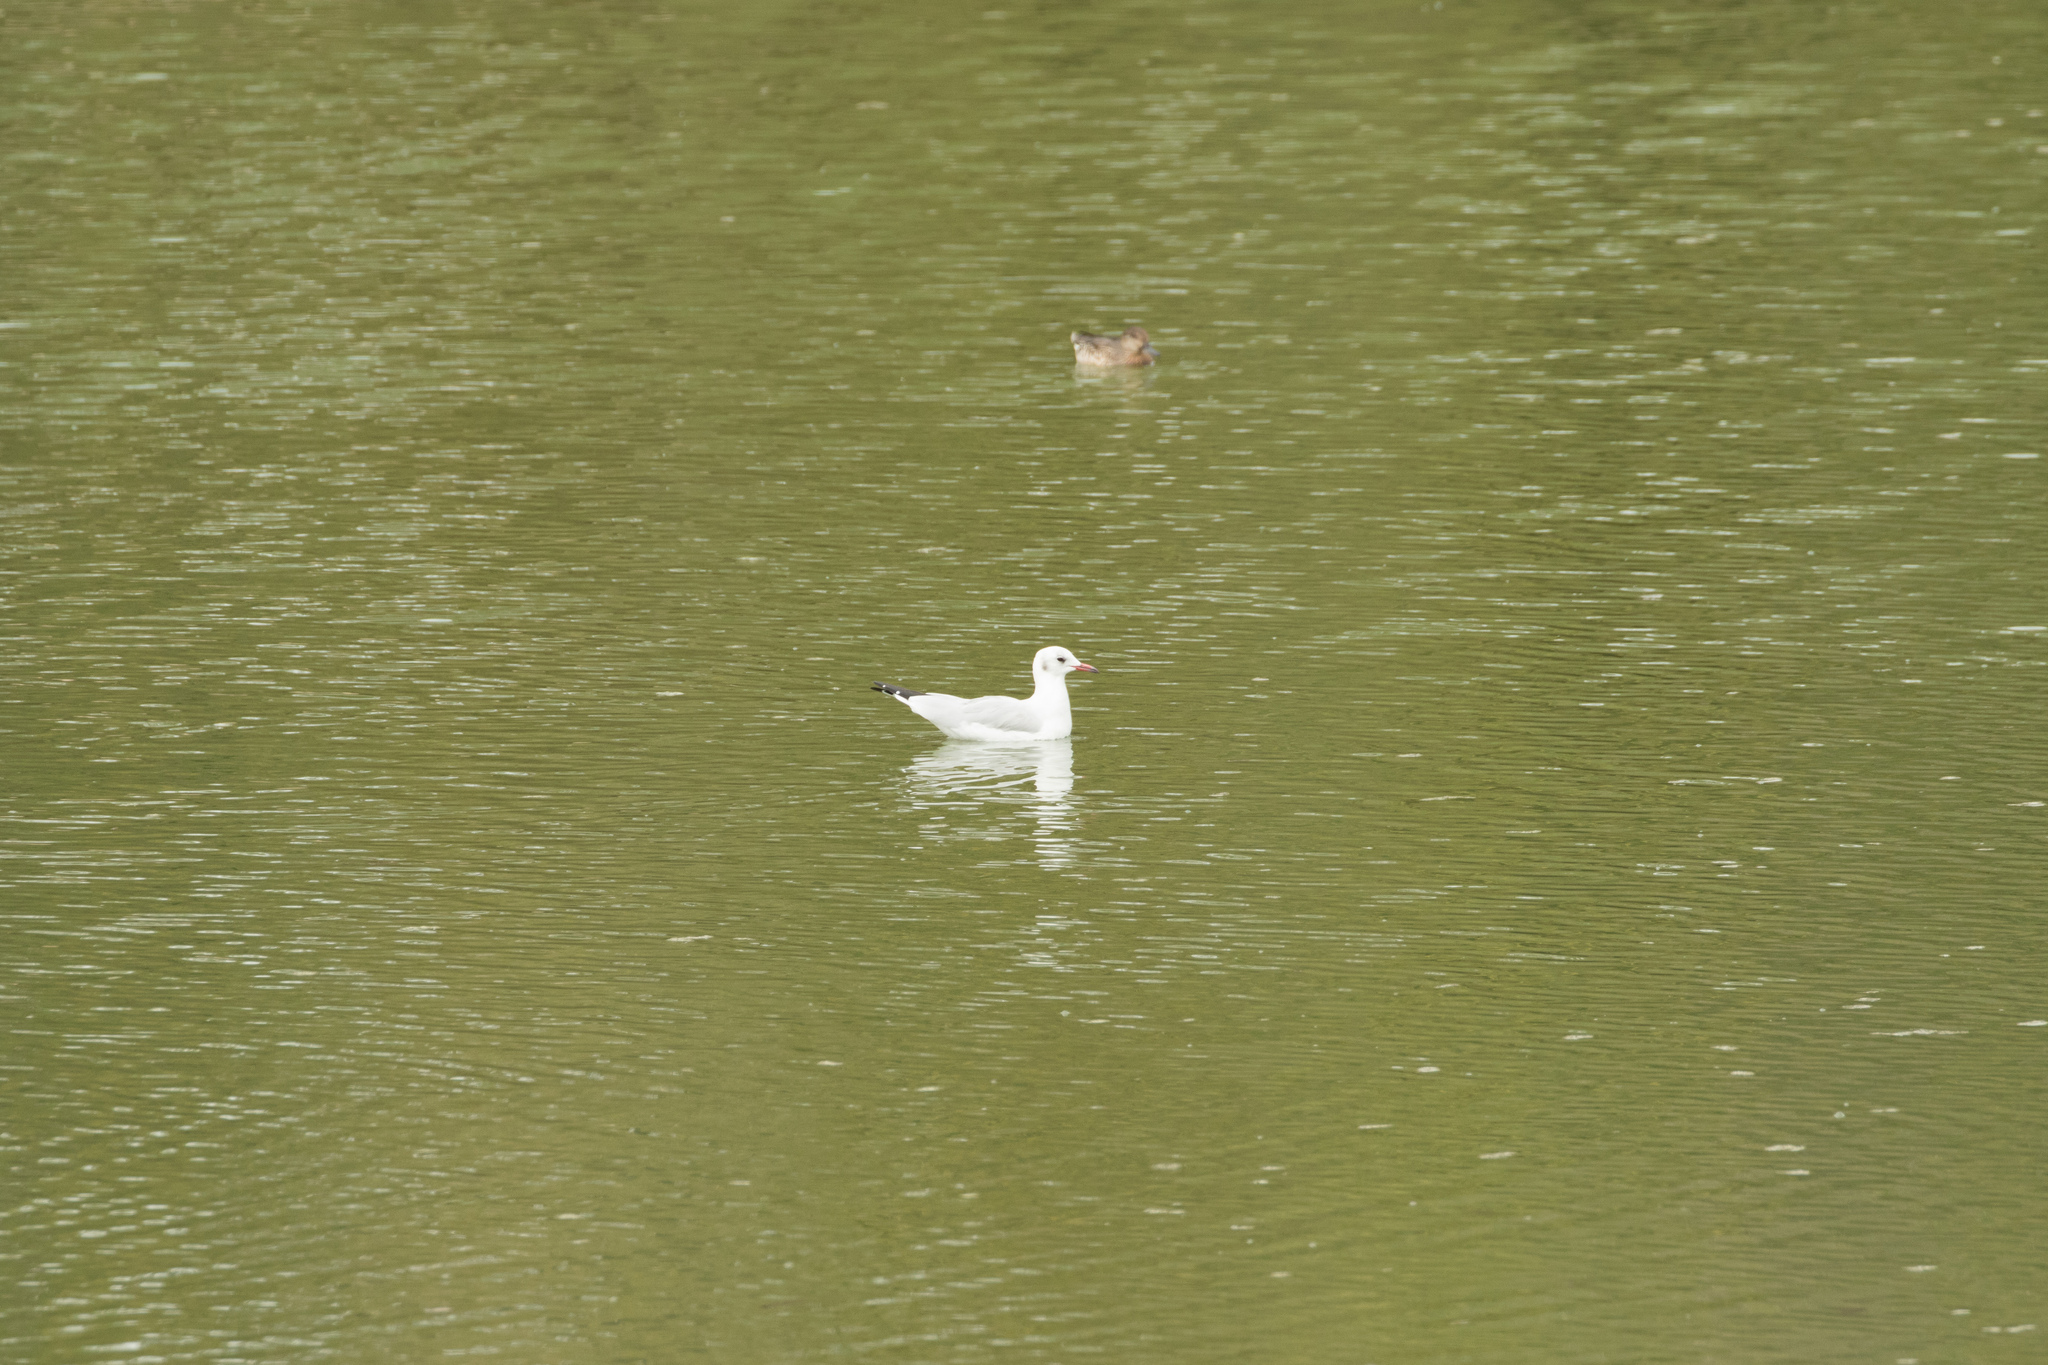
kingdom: Animalia
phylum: Chordata
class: Aves
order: Charadriiformes
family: Laridae
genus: Chroicocephalus
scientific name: Chroicocephalus ridibundus
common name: Black-headed gull
